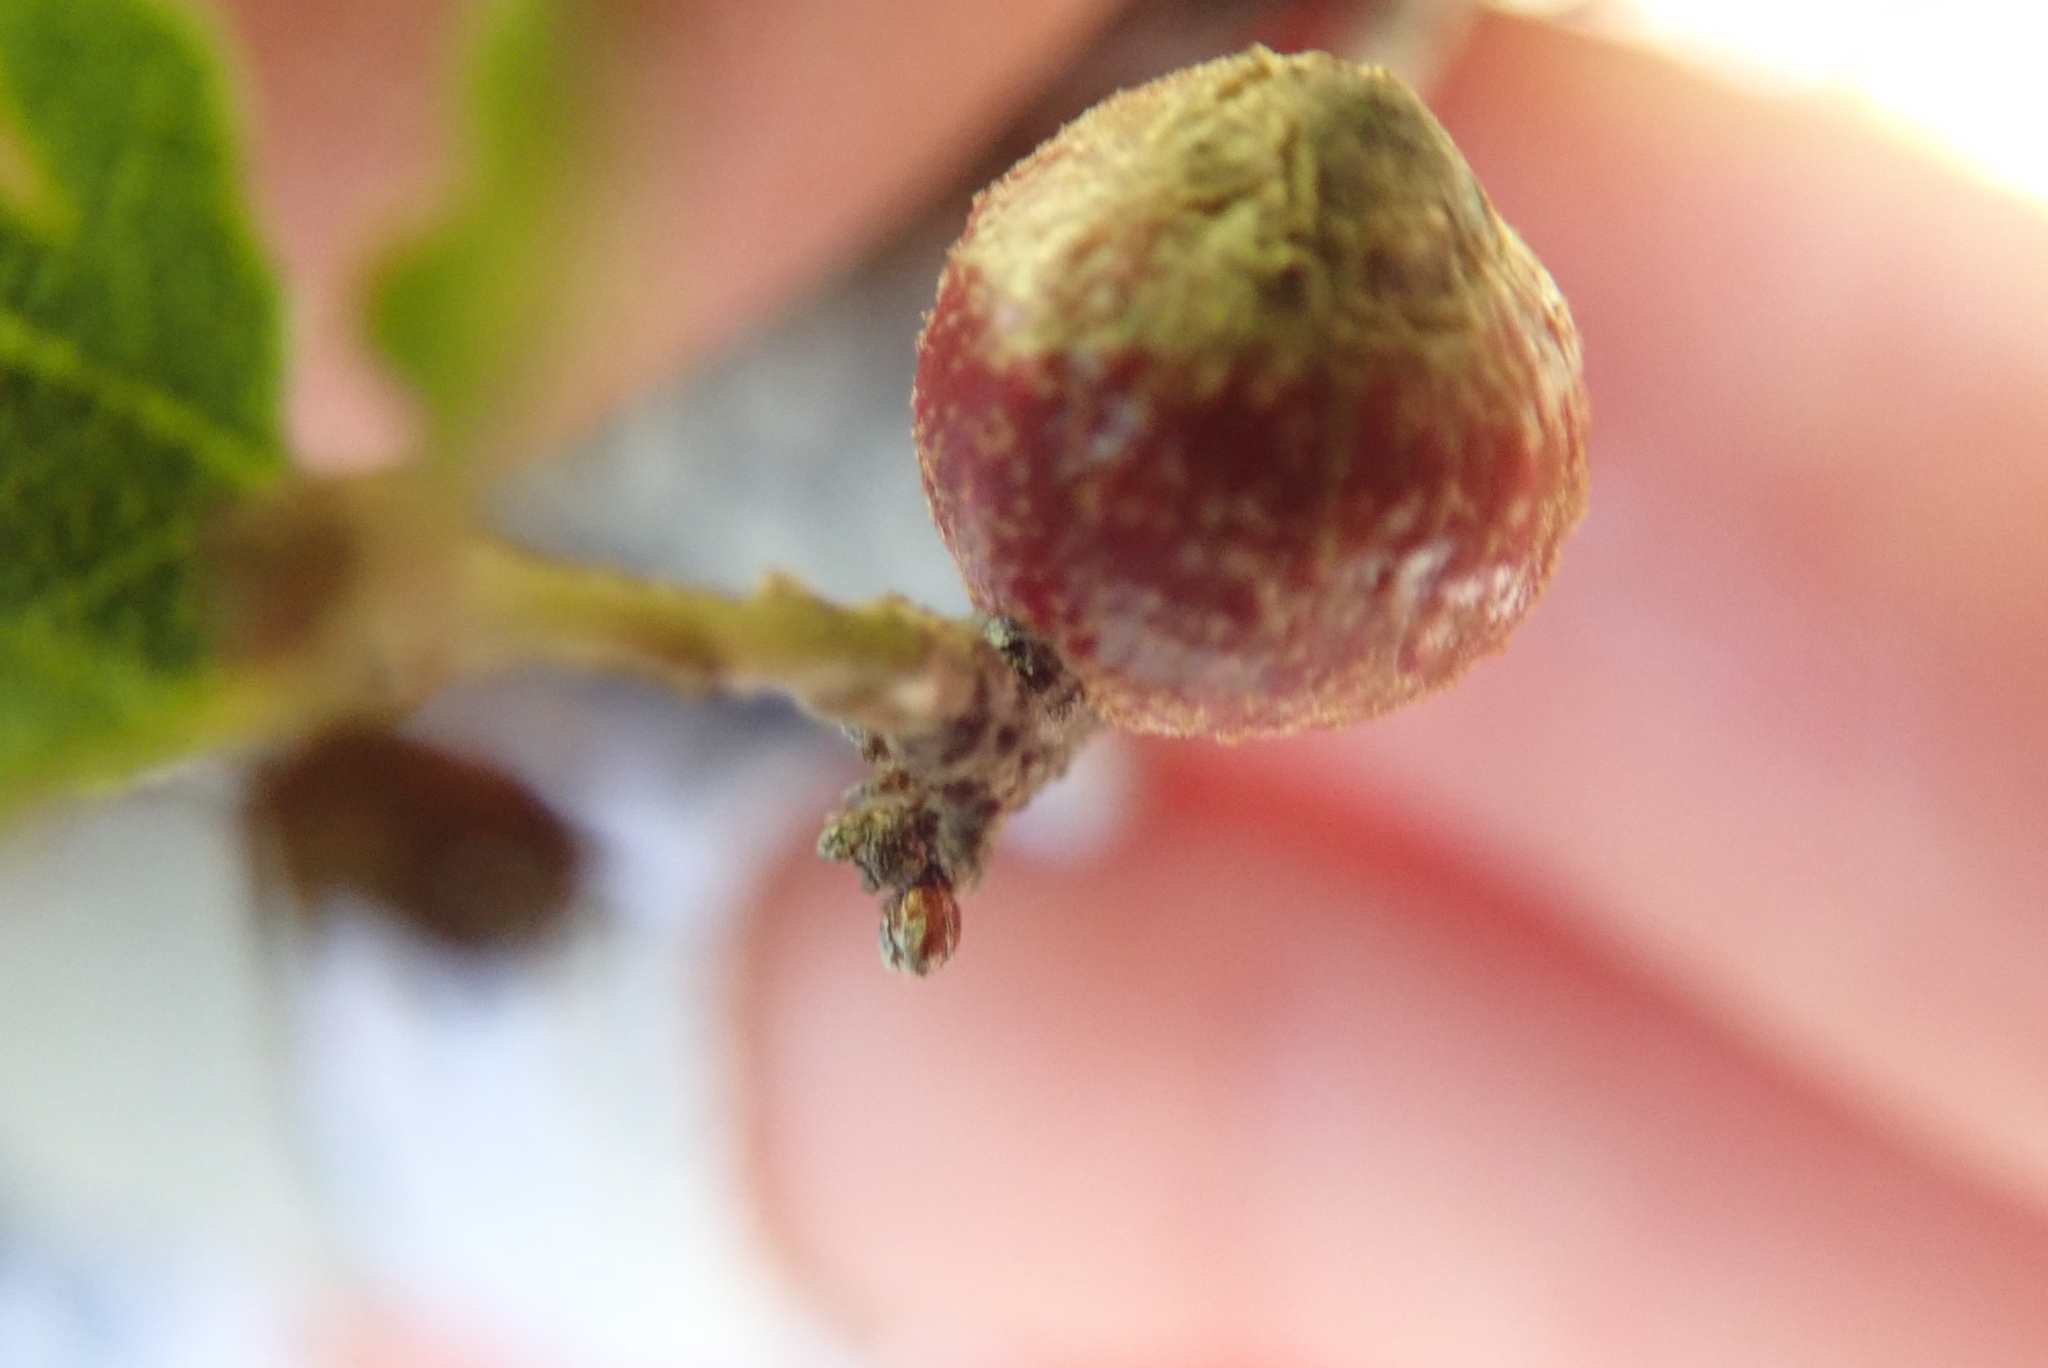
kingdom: Animalia
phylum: Arthropoda
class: Insecta
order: Hymenoptera
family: Cynipidae
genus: Burnettweldia
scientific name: Burnettweldia
